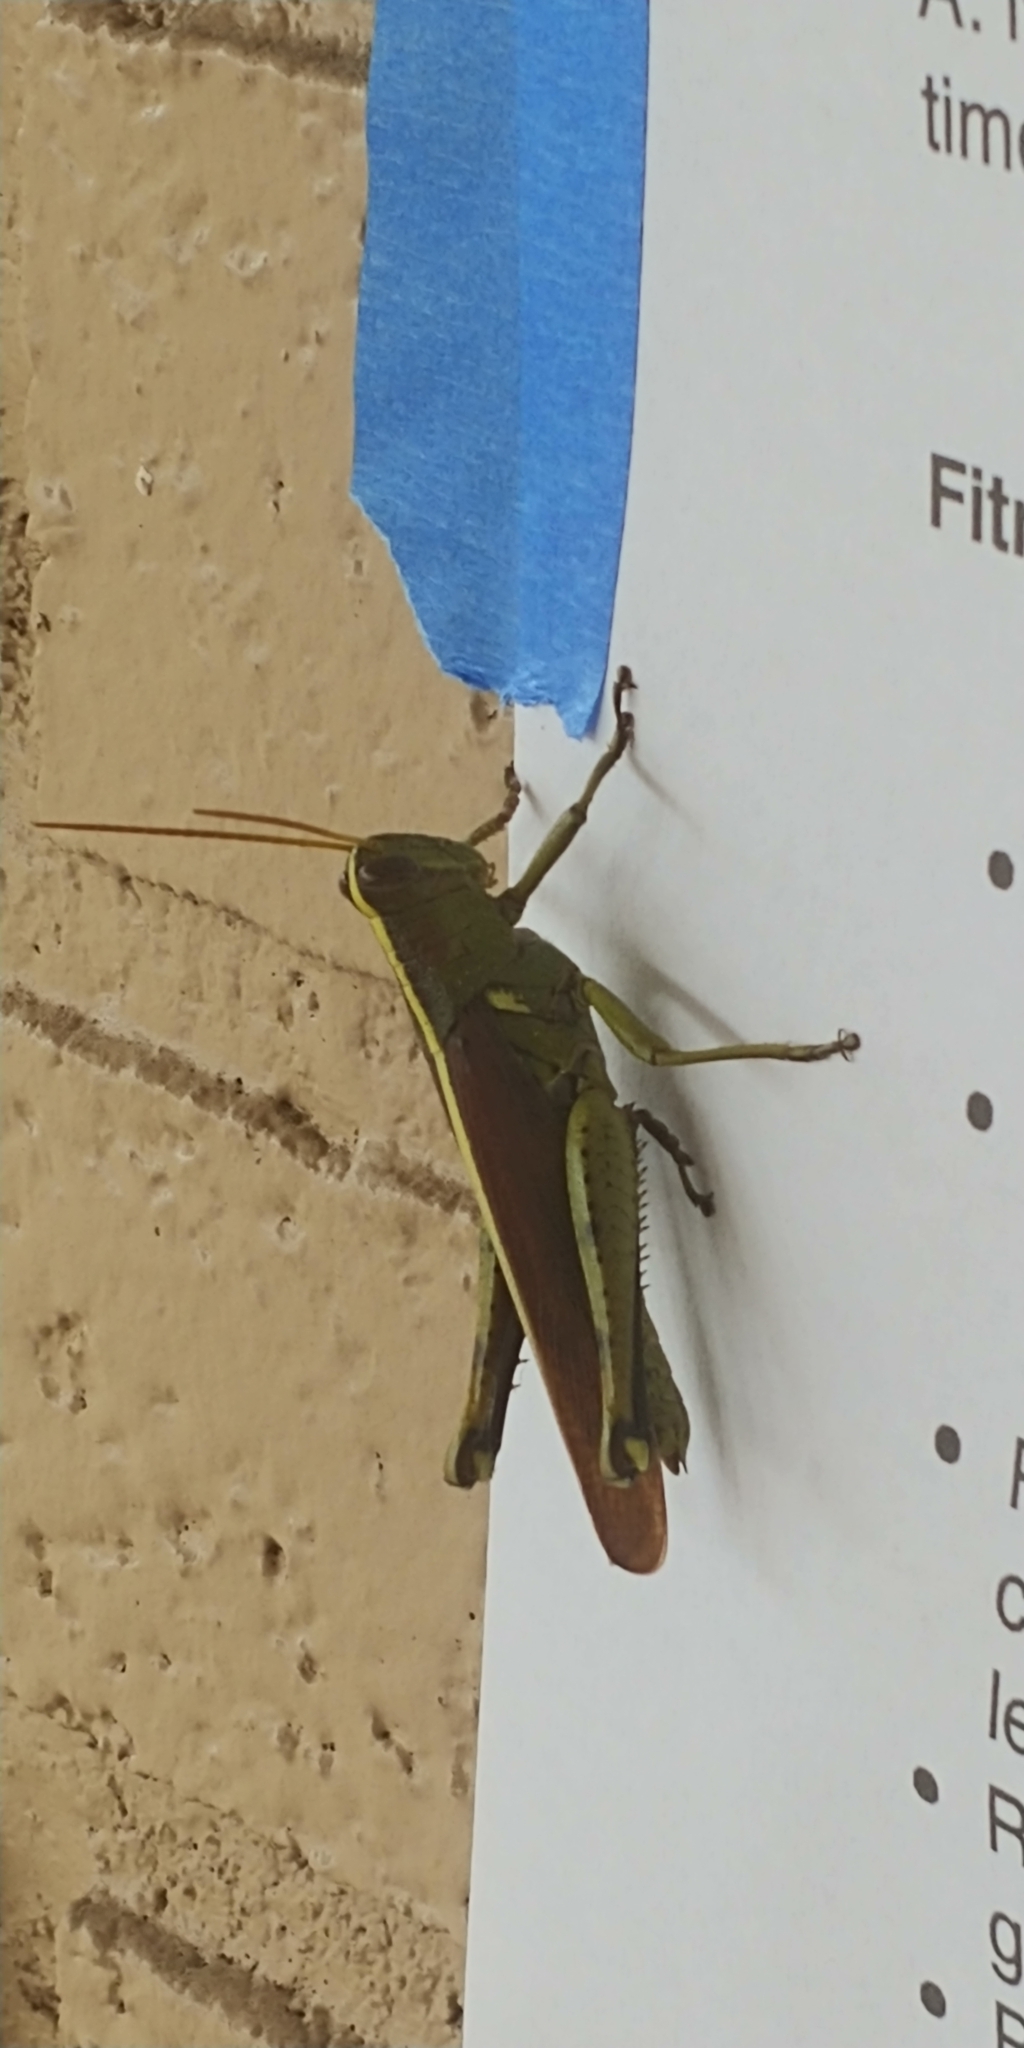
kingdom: Animalia
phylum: Arthropoda
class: Insecta
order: Orthoptera
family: Acrididae
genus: Schistocerca
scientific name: Schistocerca obscura
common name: Obscure bird grasshopper
